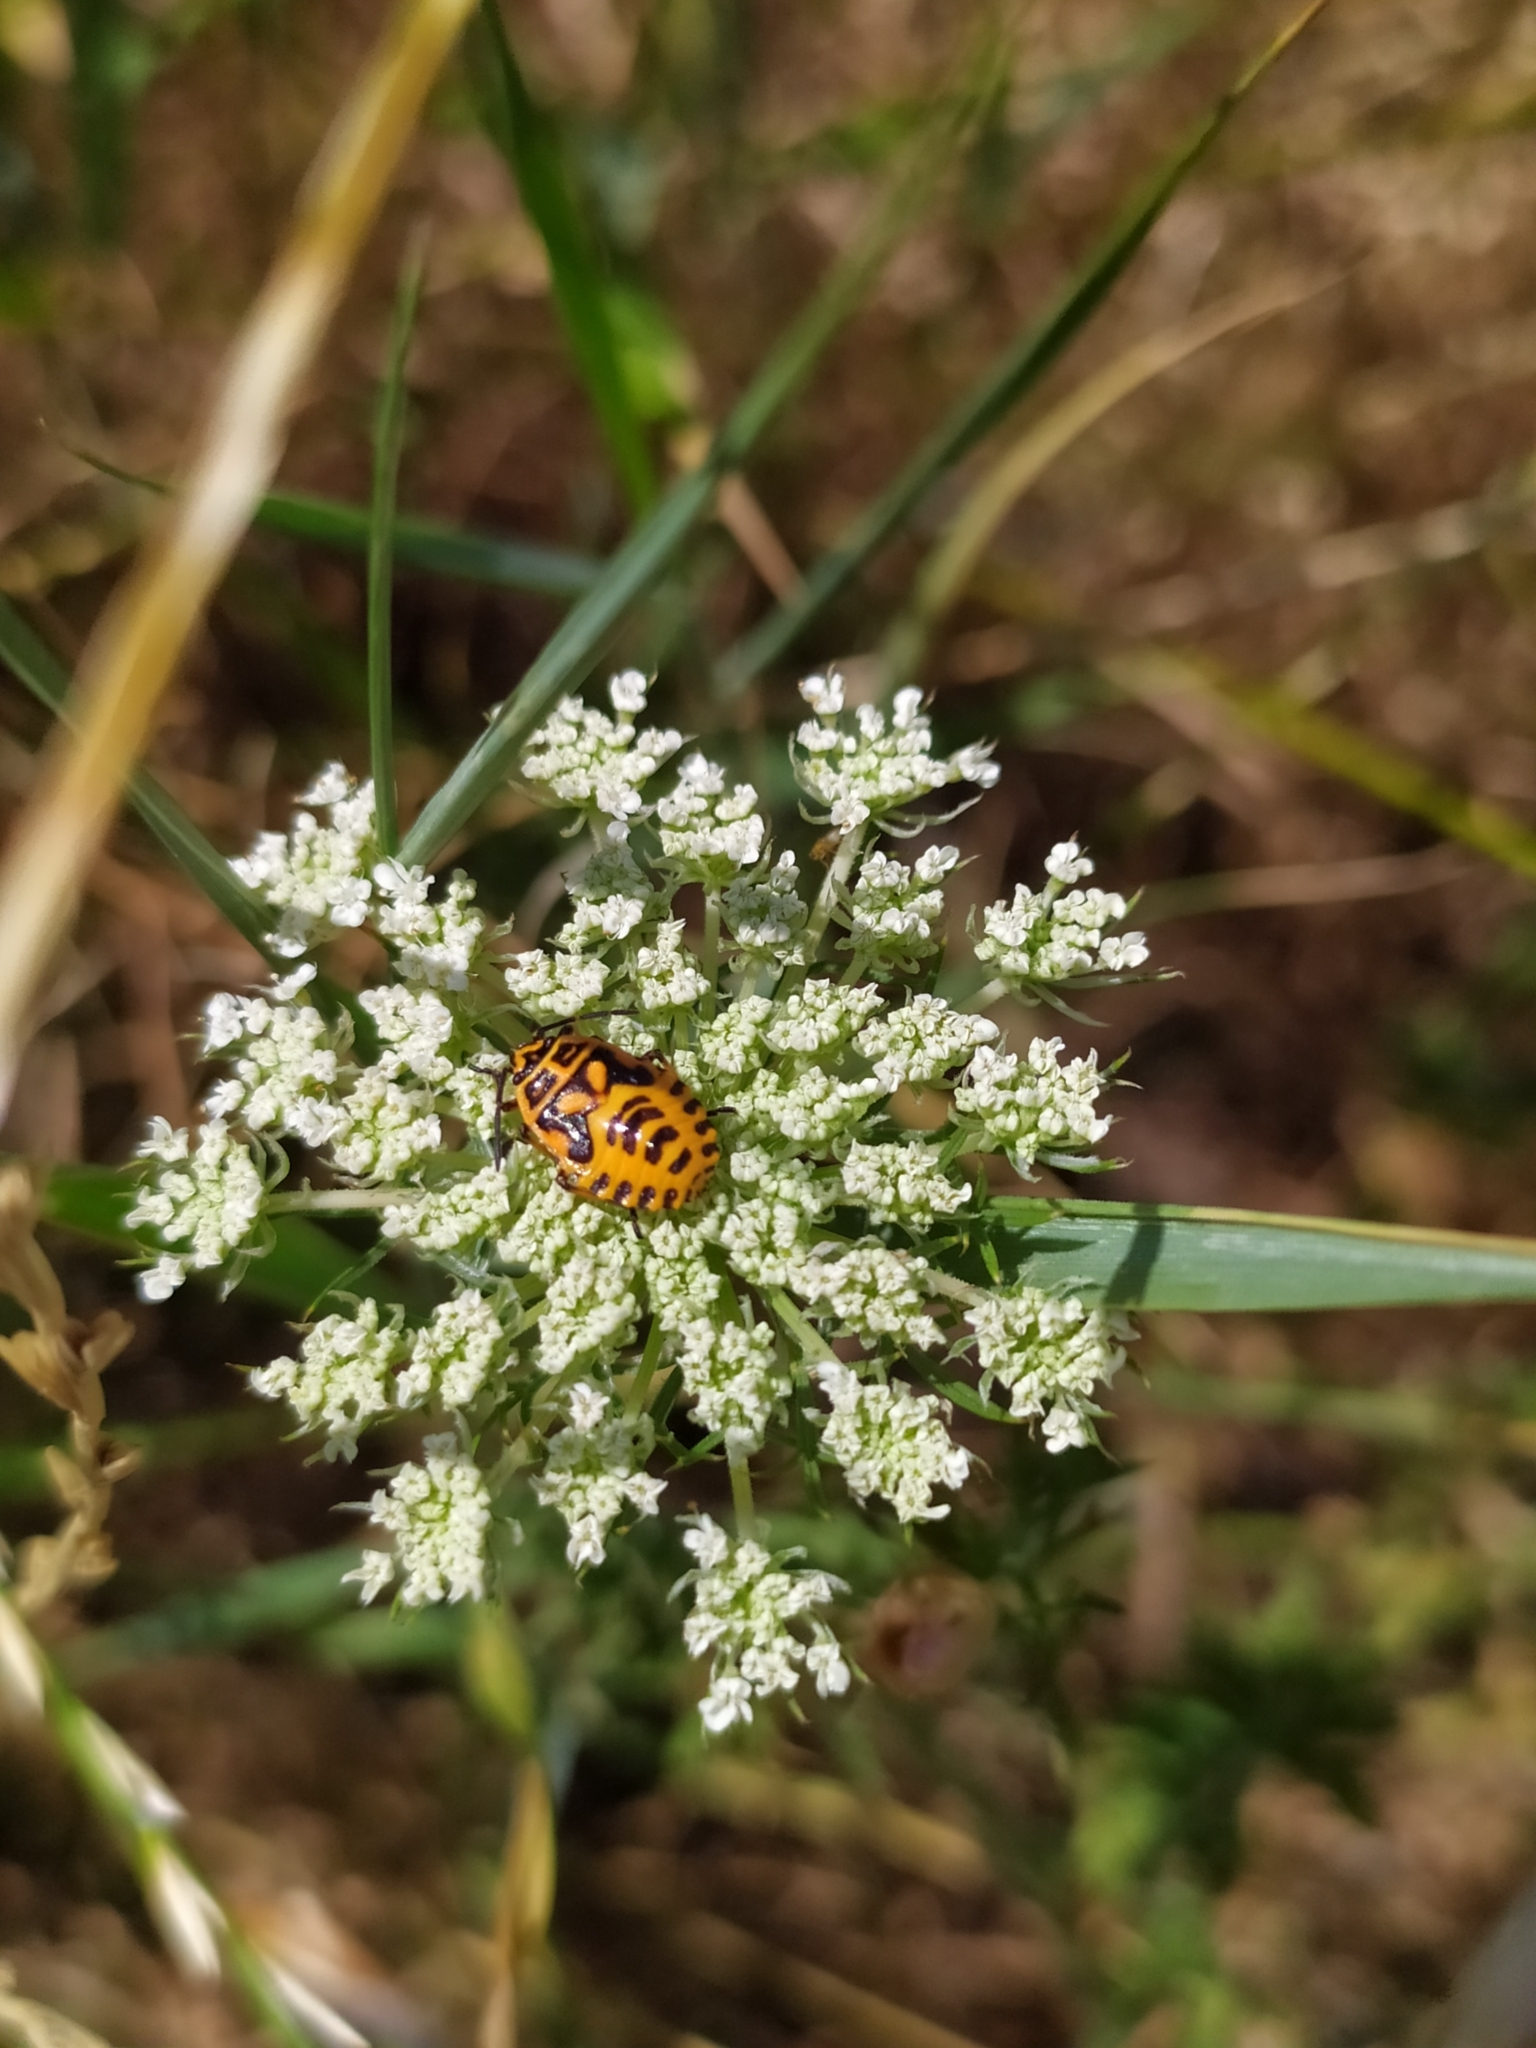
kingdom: Animalia
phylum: Arthropoda
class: Insecta
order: Hemiptera
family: Pentatomidae
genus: Eurydema
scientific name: Eurydema ventralis
